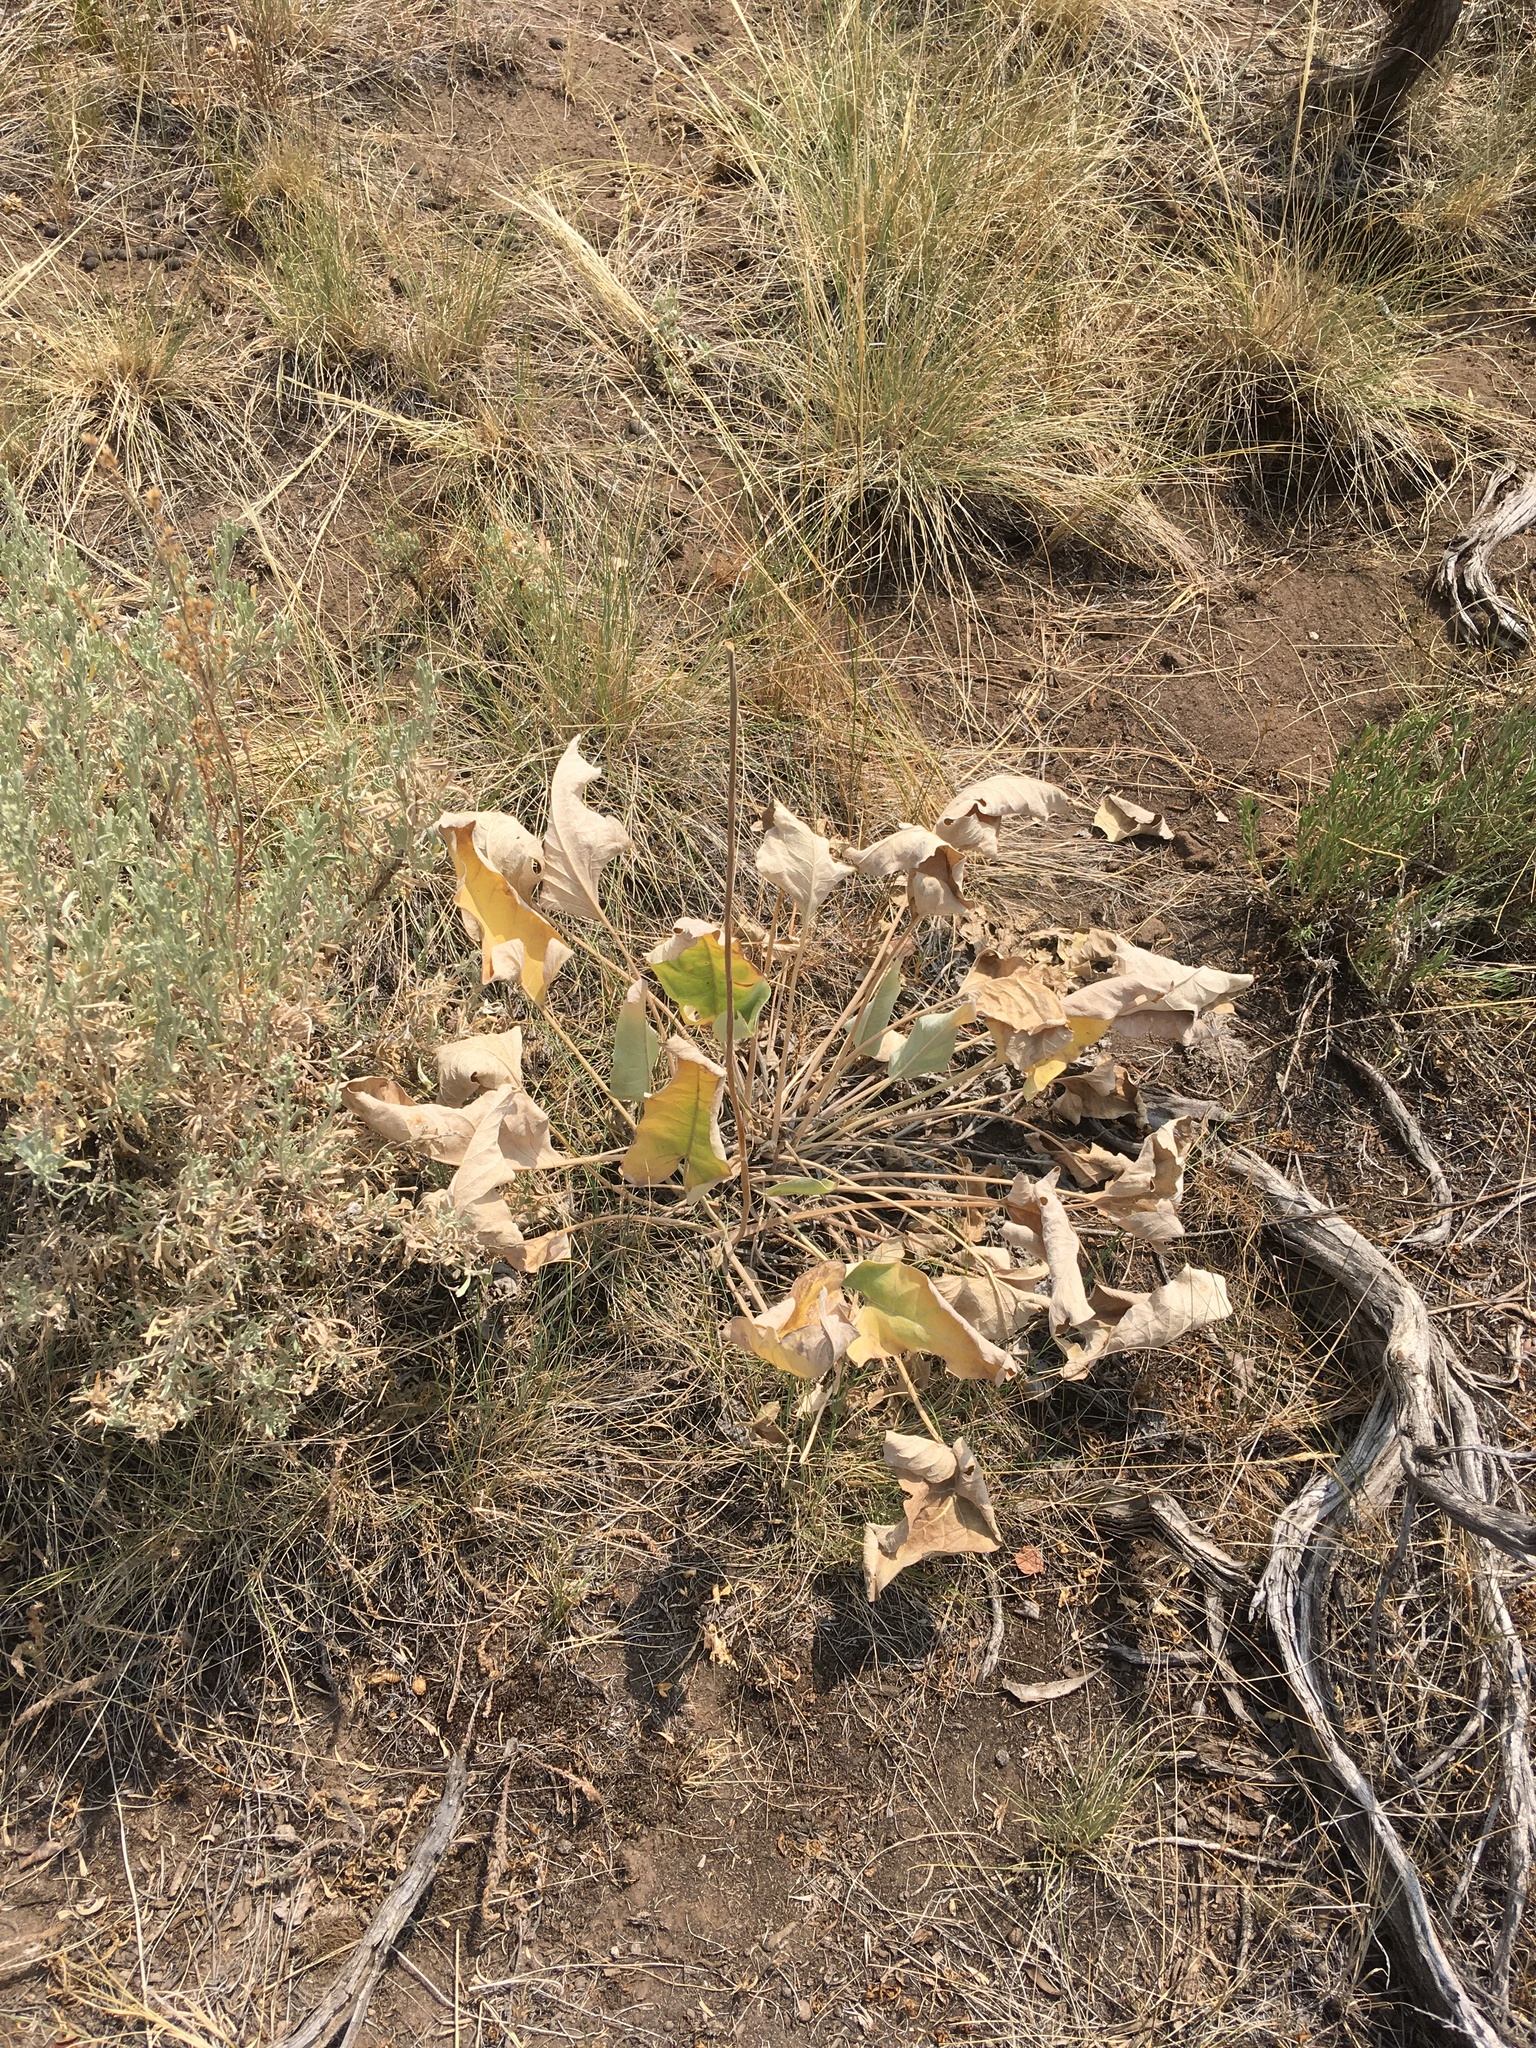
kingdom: Plantae
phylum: Tracheophyta
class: Magnoliopsida
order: Asterales
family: Asteraceae
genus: Wyethia
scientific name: Wyethia sagittata
